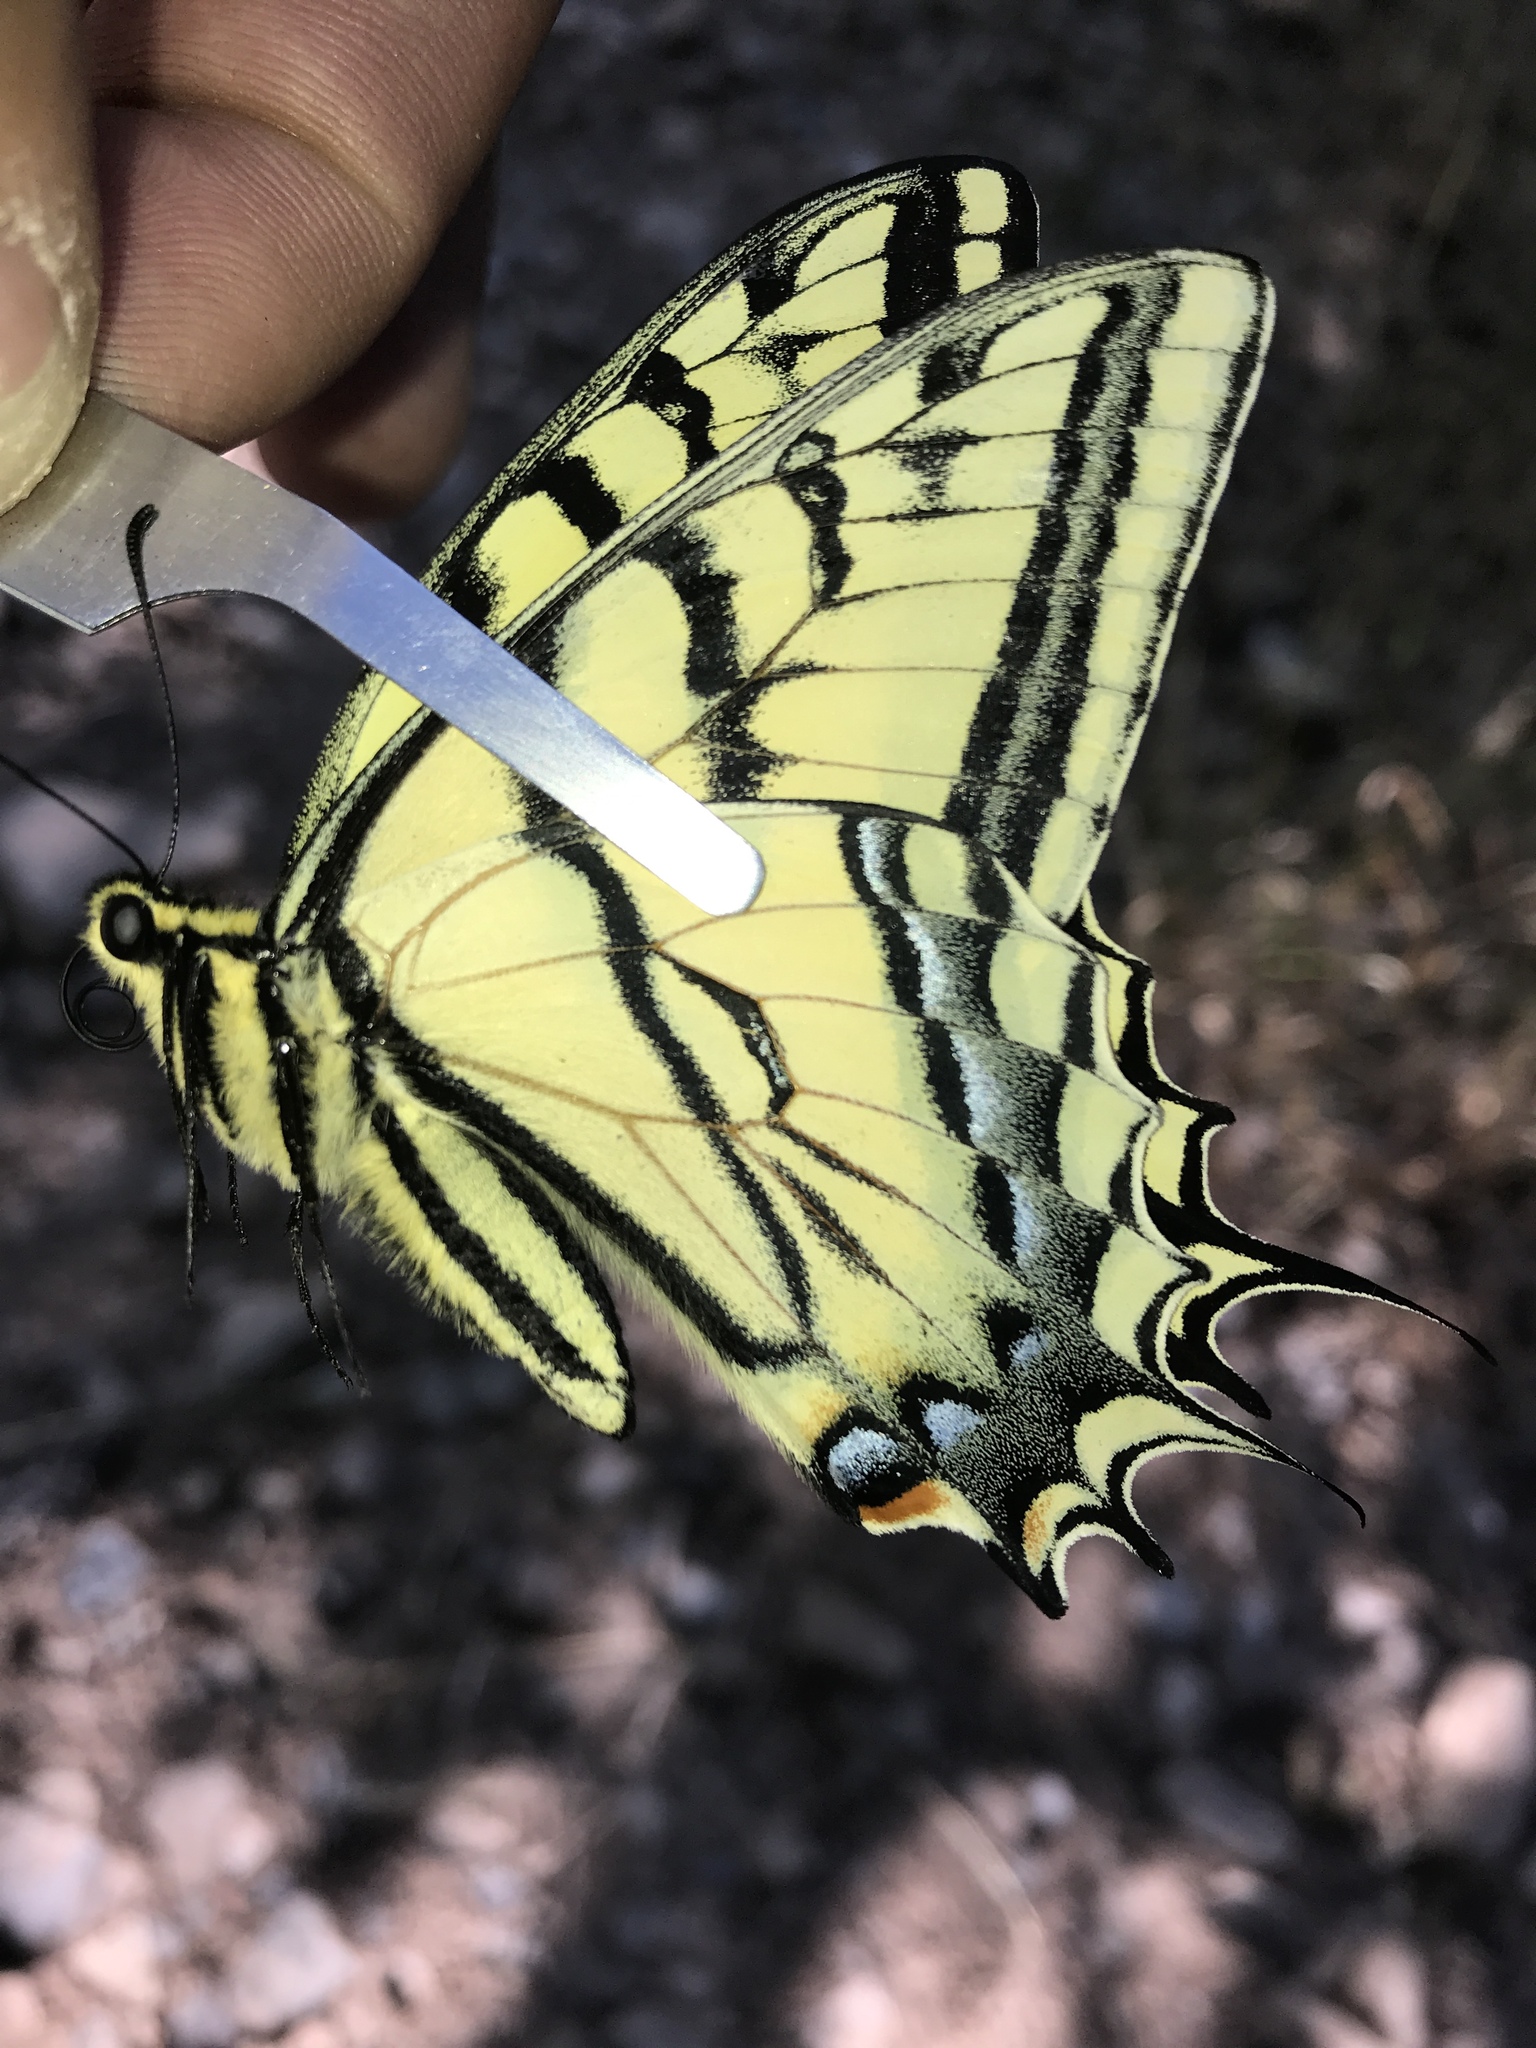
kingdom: Animalia
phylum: Arthropoda
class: Insecta
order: Lepidoptera
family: Papilionidae
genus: Papilio
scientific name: Papilio multicaudata
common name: Two-tailed tiger swallowtail
